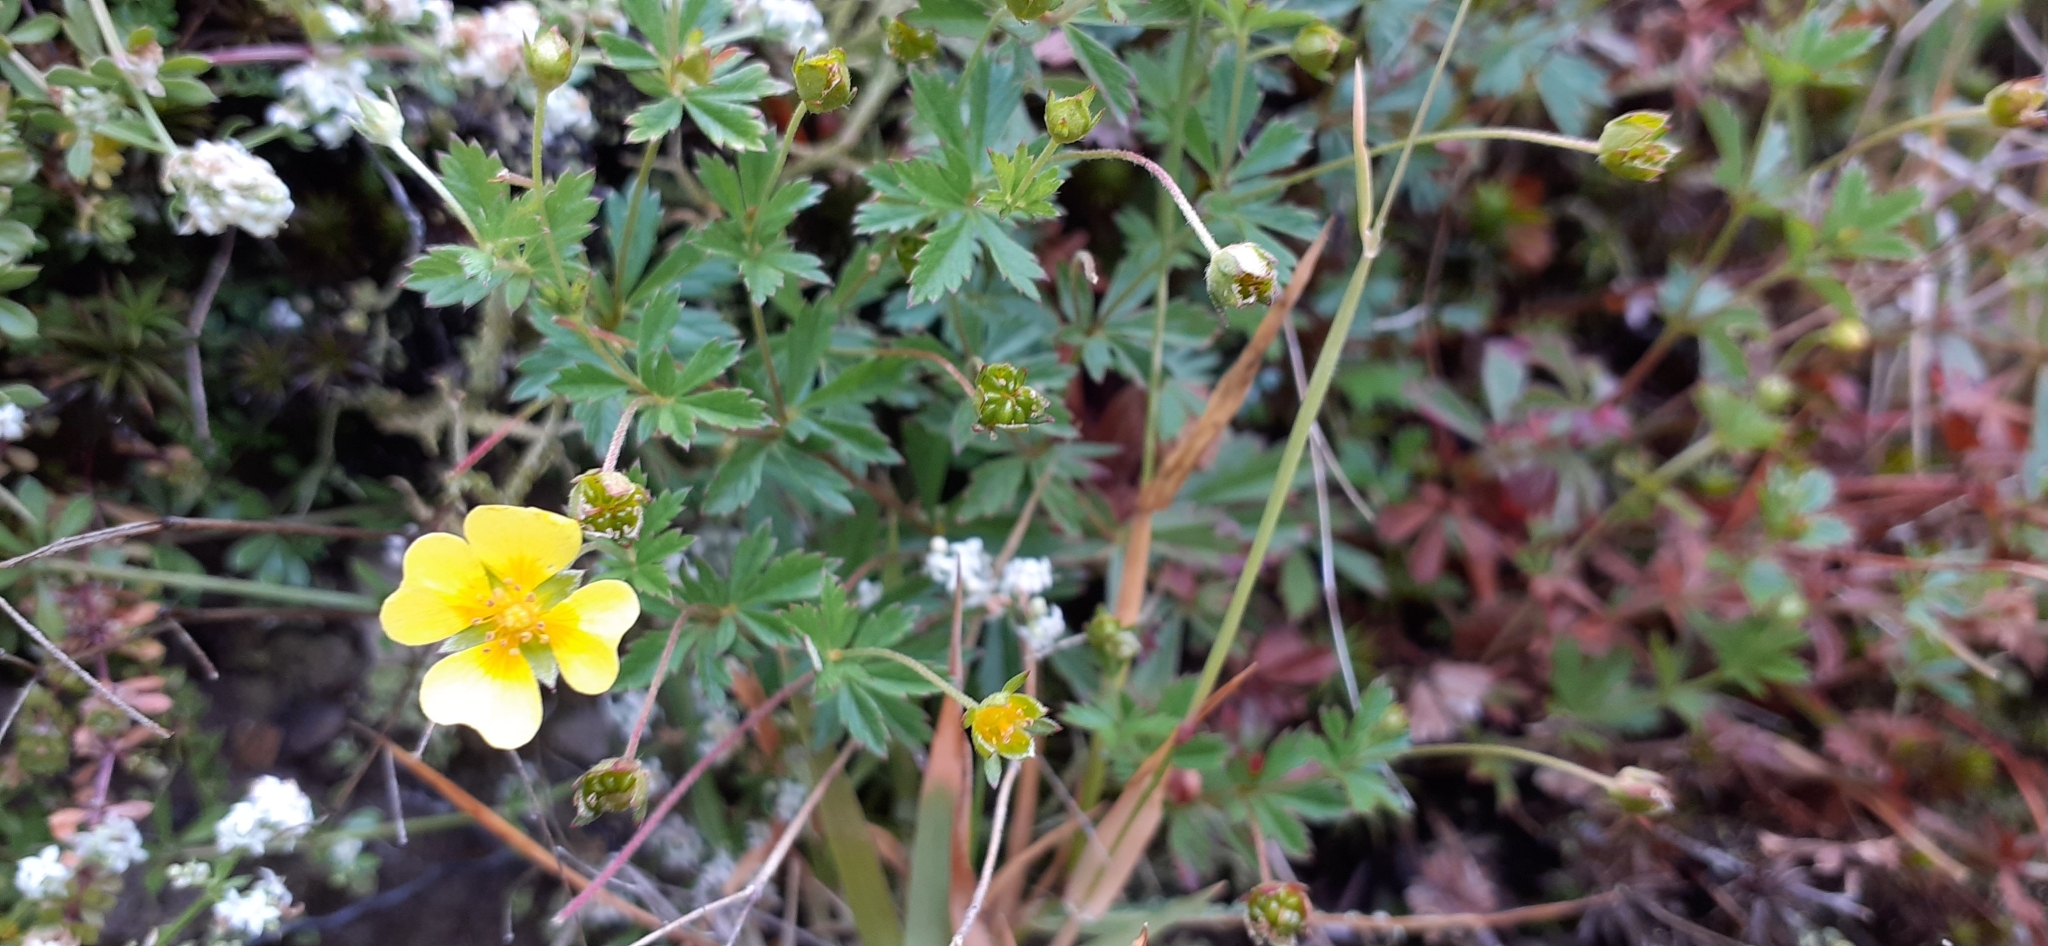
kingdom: Plantae
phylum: Tracheophyta
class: Magnoliopsida
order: Rosales
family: Rosaceae
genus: Potentilla
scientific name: Potentilla erecta
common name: Tormentil
